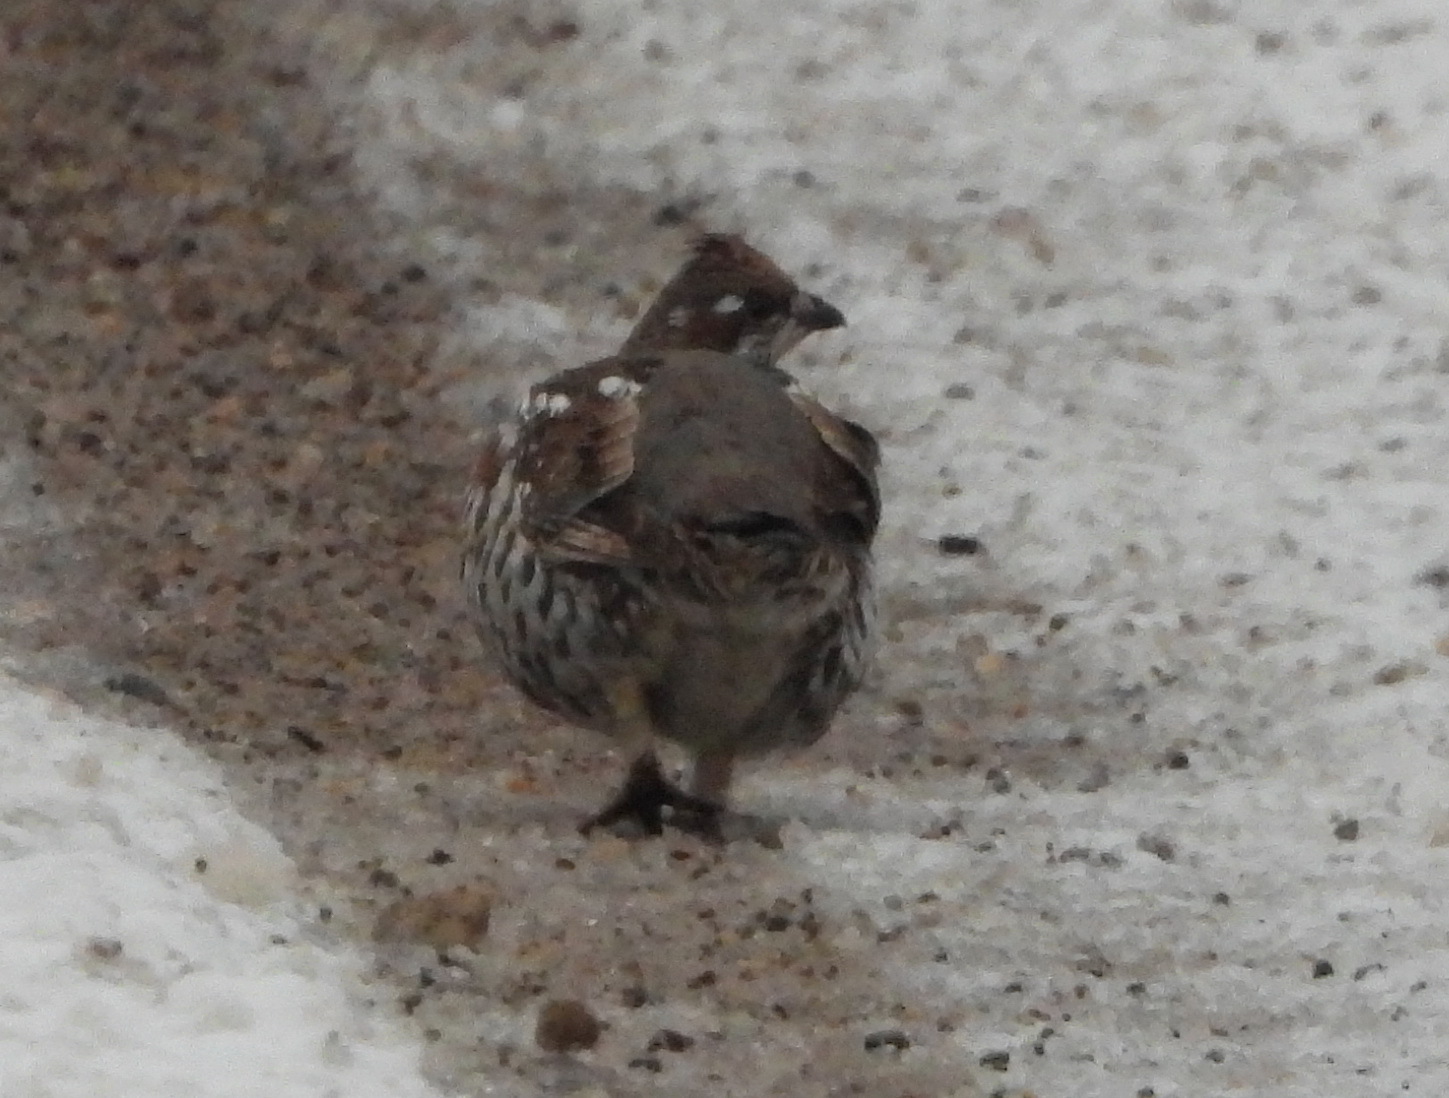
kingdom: Animalia
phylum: Chordata
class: Aves
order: Galliformes
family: Phasianidae
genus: Tetrastes
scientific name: Tetrastes bonasia
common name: Hazel grouse
